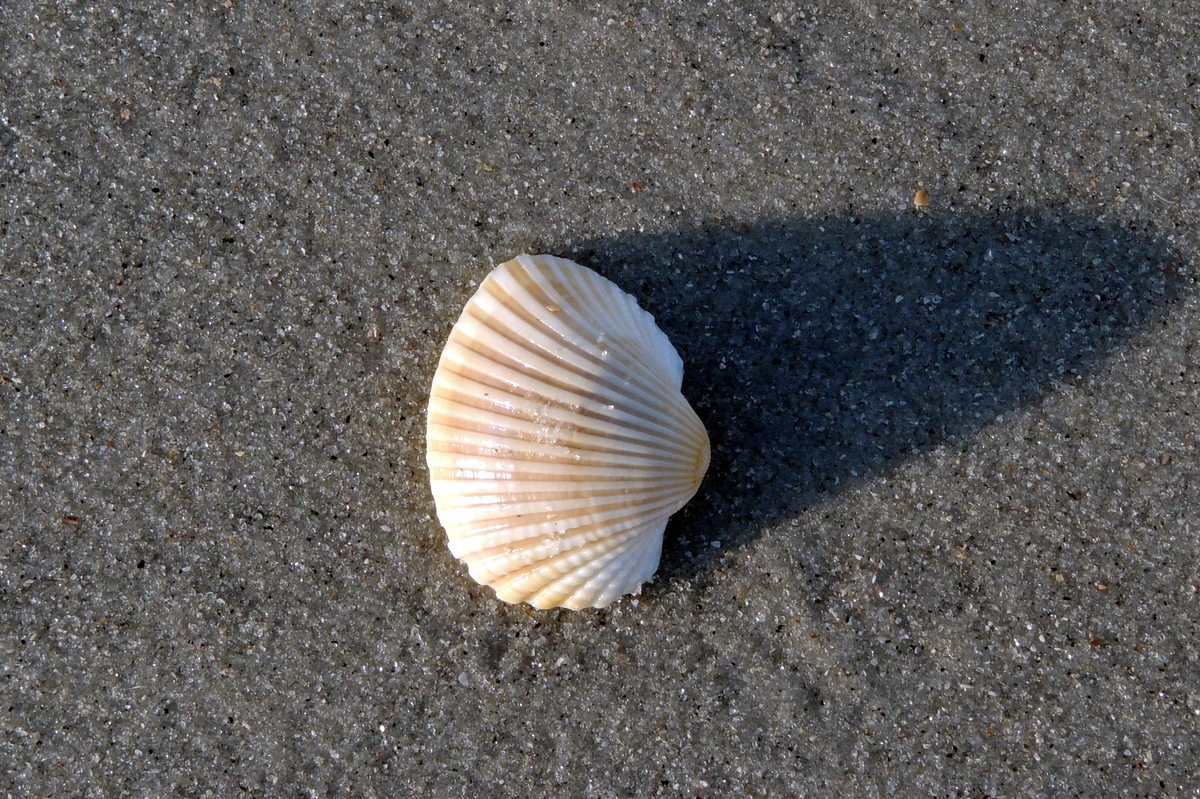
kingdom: Animalia
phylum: Mollusca
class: Bivalvia
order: Arcida
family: Arcidae
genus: Anadara
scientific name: Anadara brasiliana
